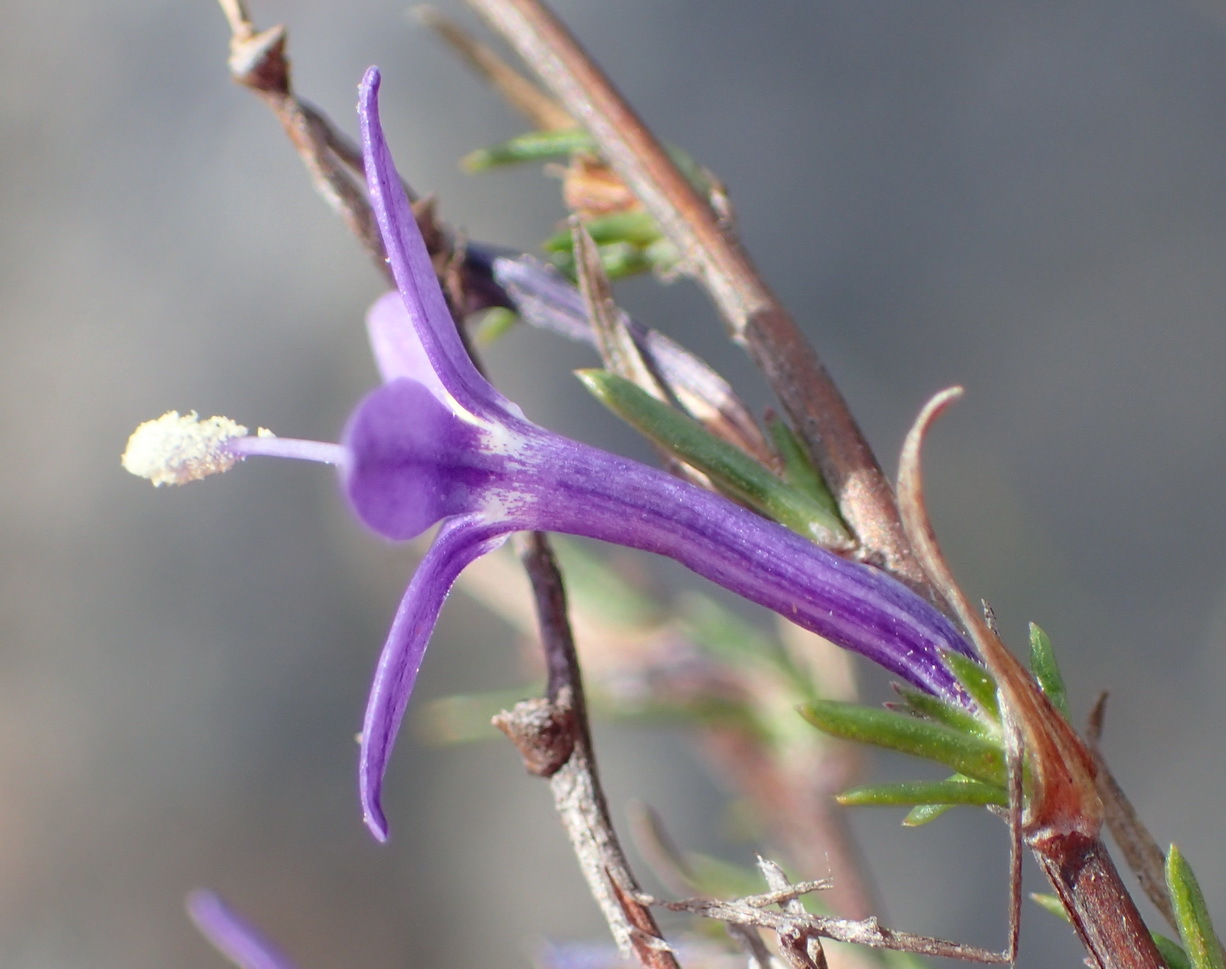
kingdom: Plantae
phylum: Tracheophyta
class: Magnoliopsida
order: Asterales
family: Campanulaceae
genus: Theilera
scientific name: Theilera guthriei
